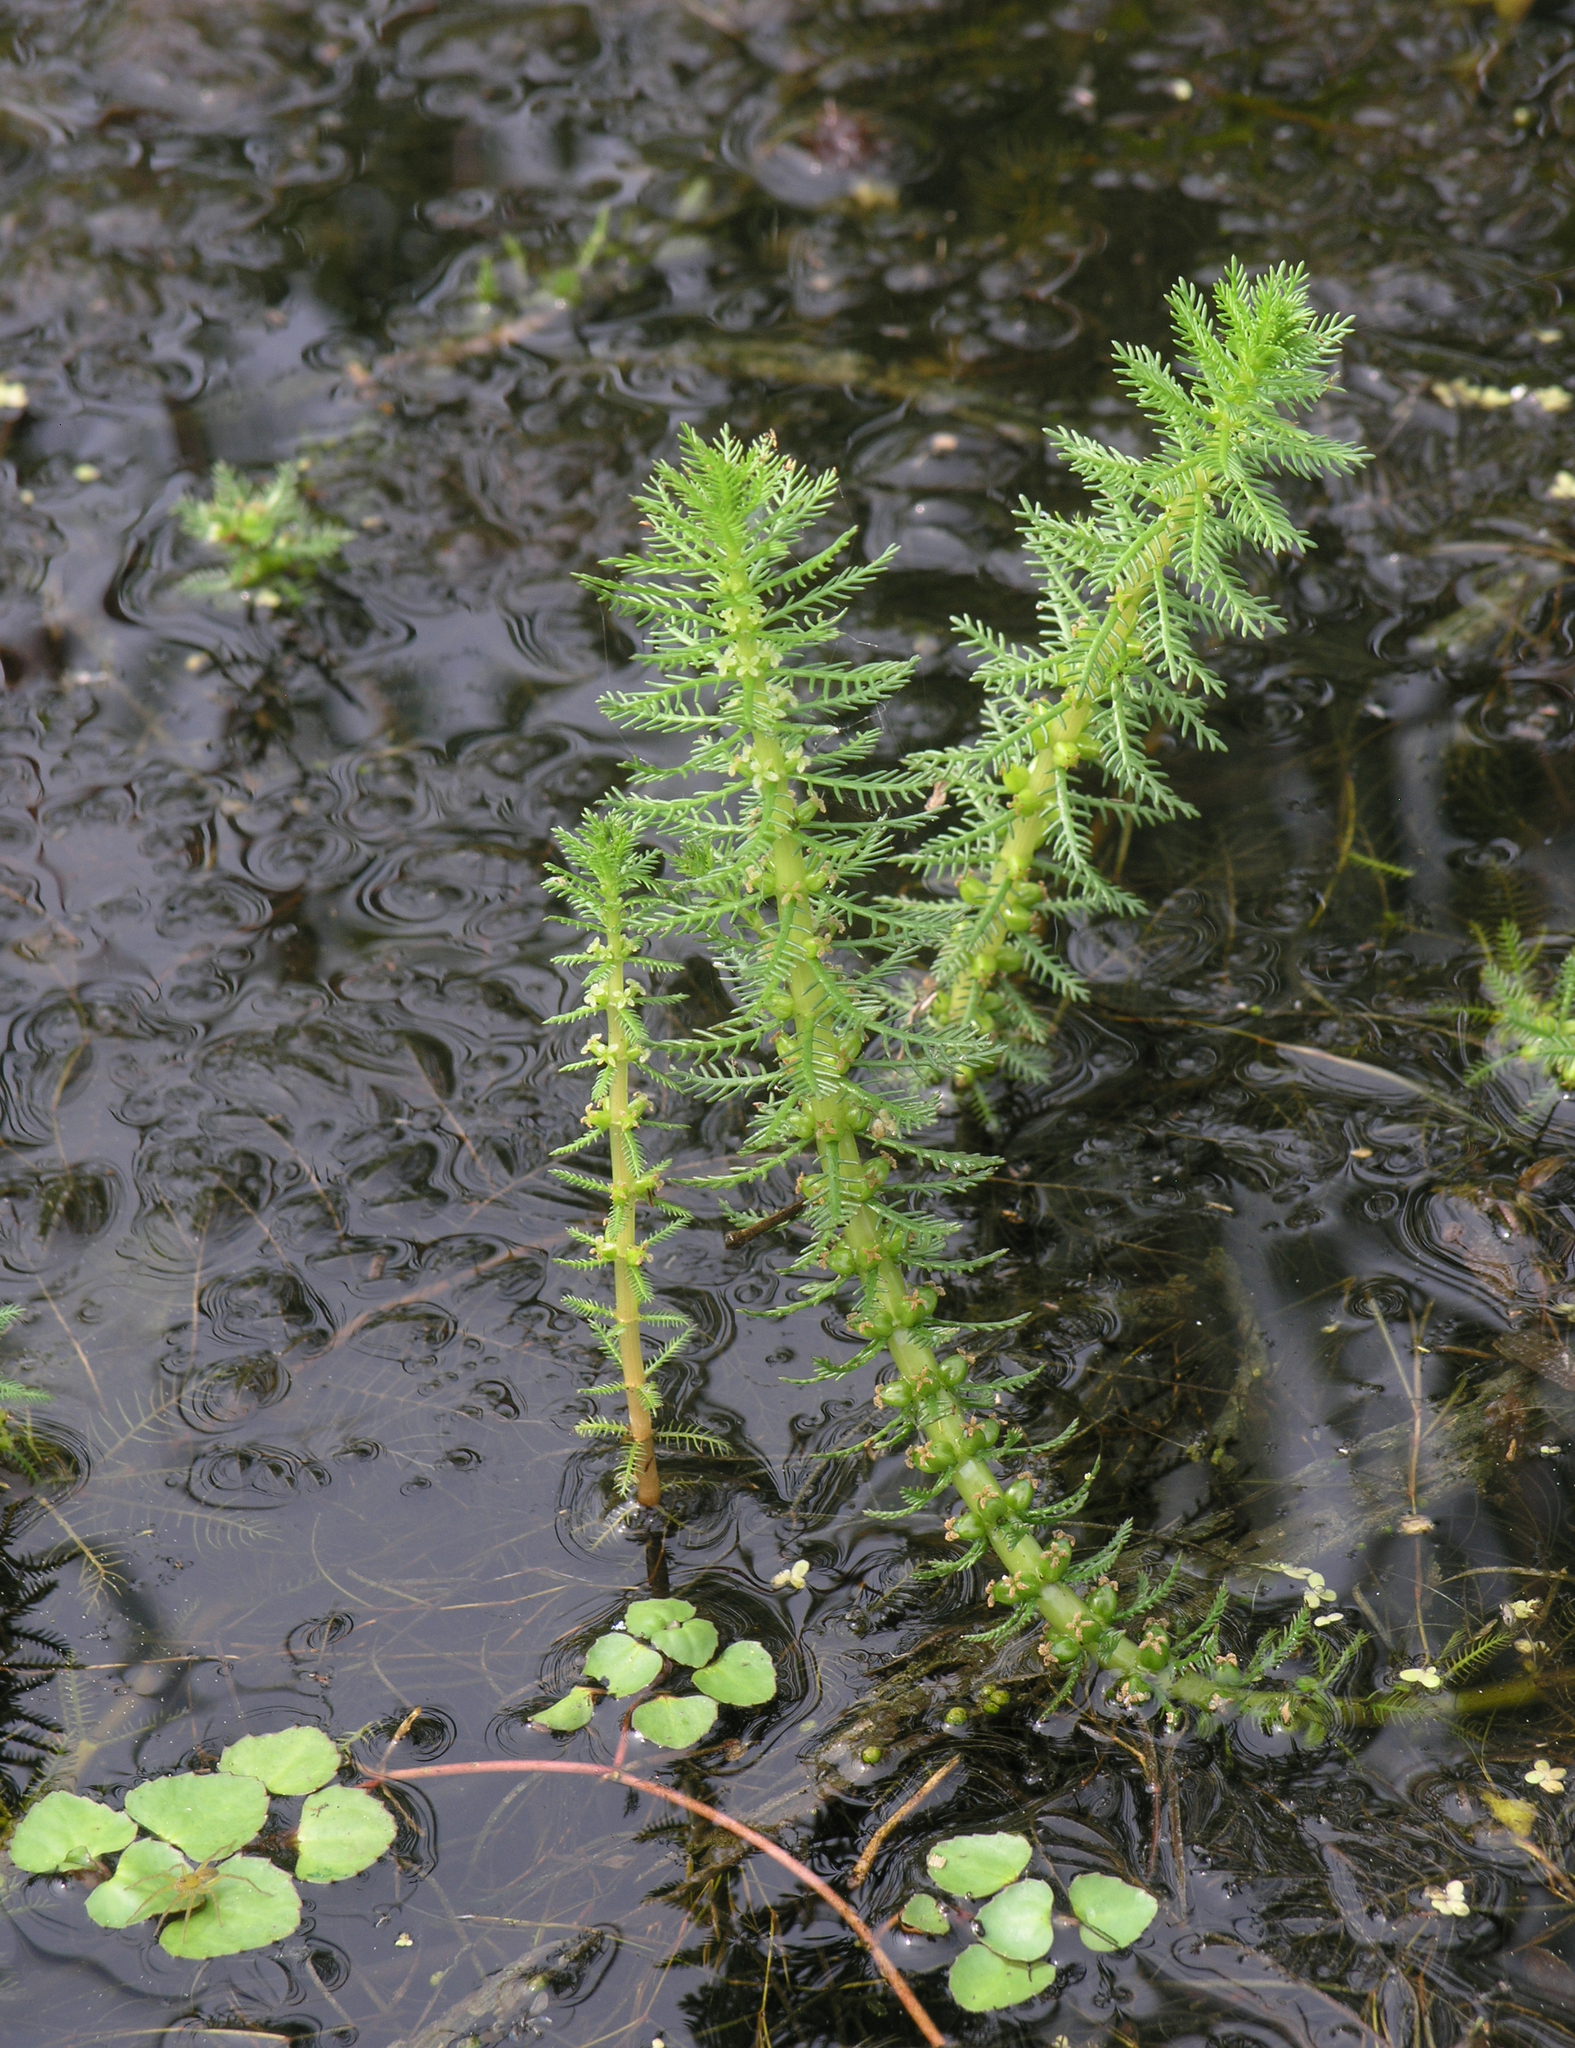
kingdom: Plantae
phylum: Tracheophyta
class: Magnoliopsida
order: Saxifragales
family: Haloragaceae
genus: Myriophyllum
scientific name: Myriophyllum verticillatum
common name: Whorled water-milfoil
